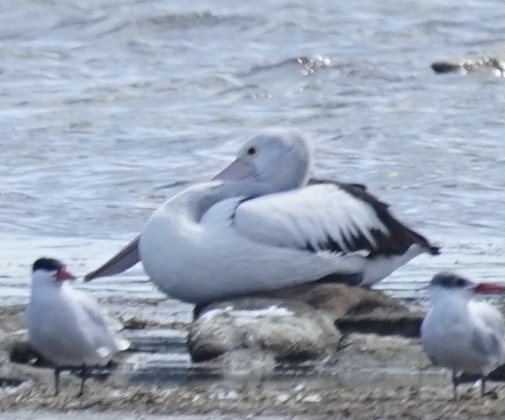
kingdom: Animalia
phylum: Chordata
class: Aves
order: Pelecaniformes
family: Pelecanidae
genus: Pelecanus
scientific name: Pelecanus conspicillatus
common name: Australian pelican
